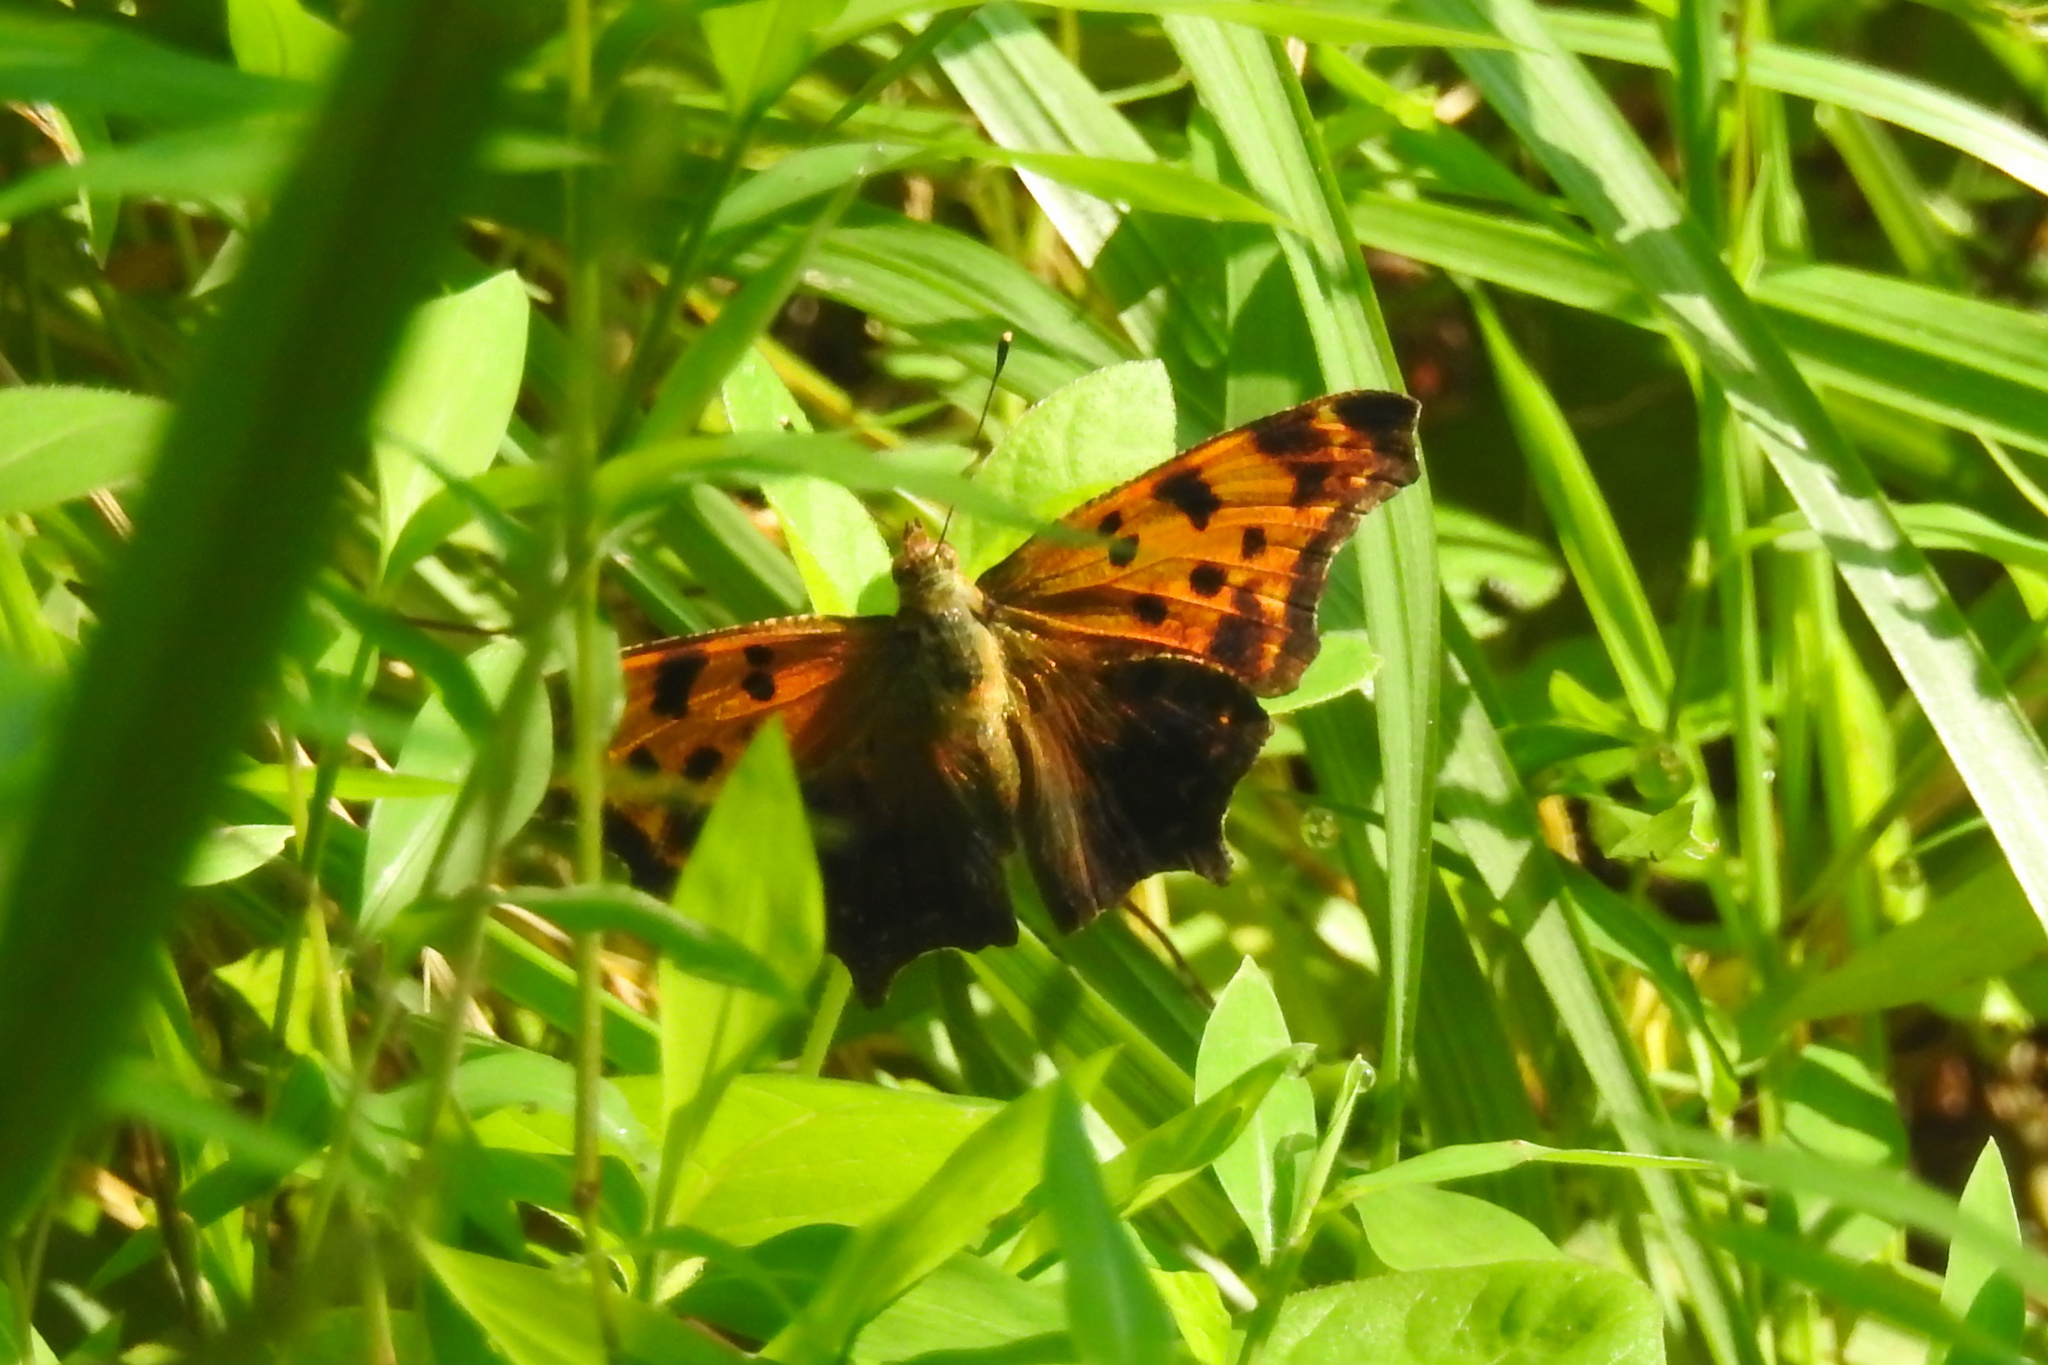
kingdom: Animalia
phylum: Arthropoda
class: Insecta
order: Lepidoptera
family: Nymphalidae
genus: Polygonia
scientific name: Polygonia comma
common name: Eastern comma
